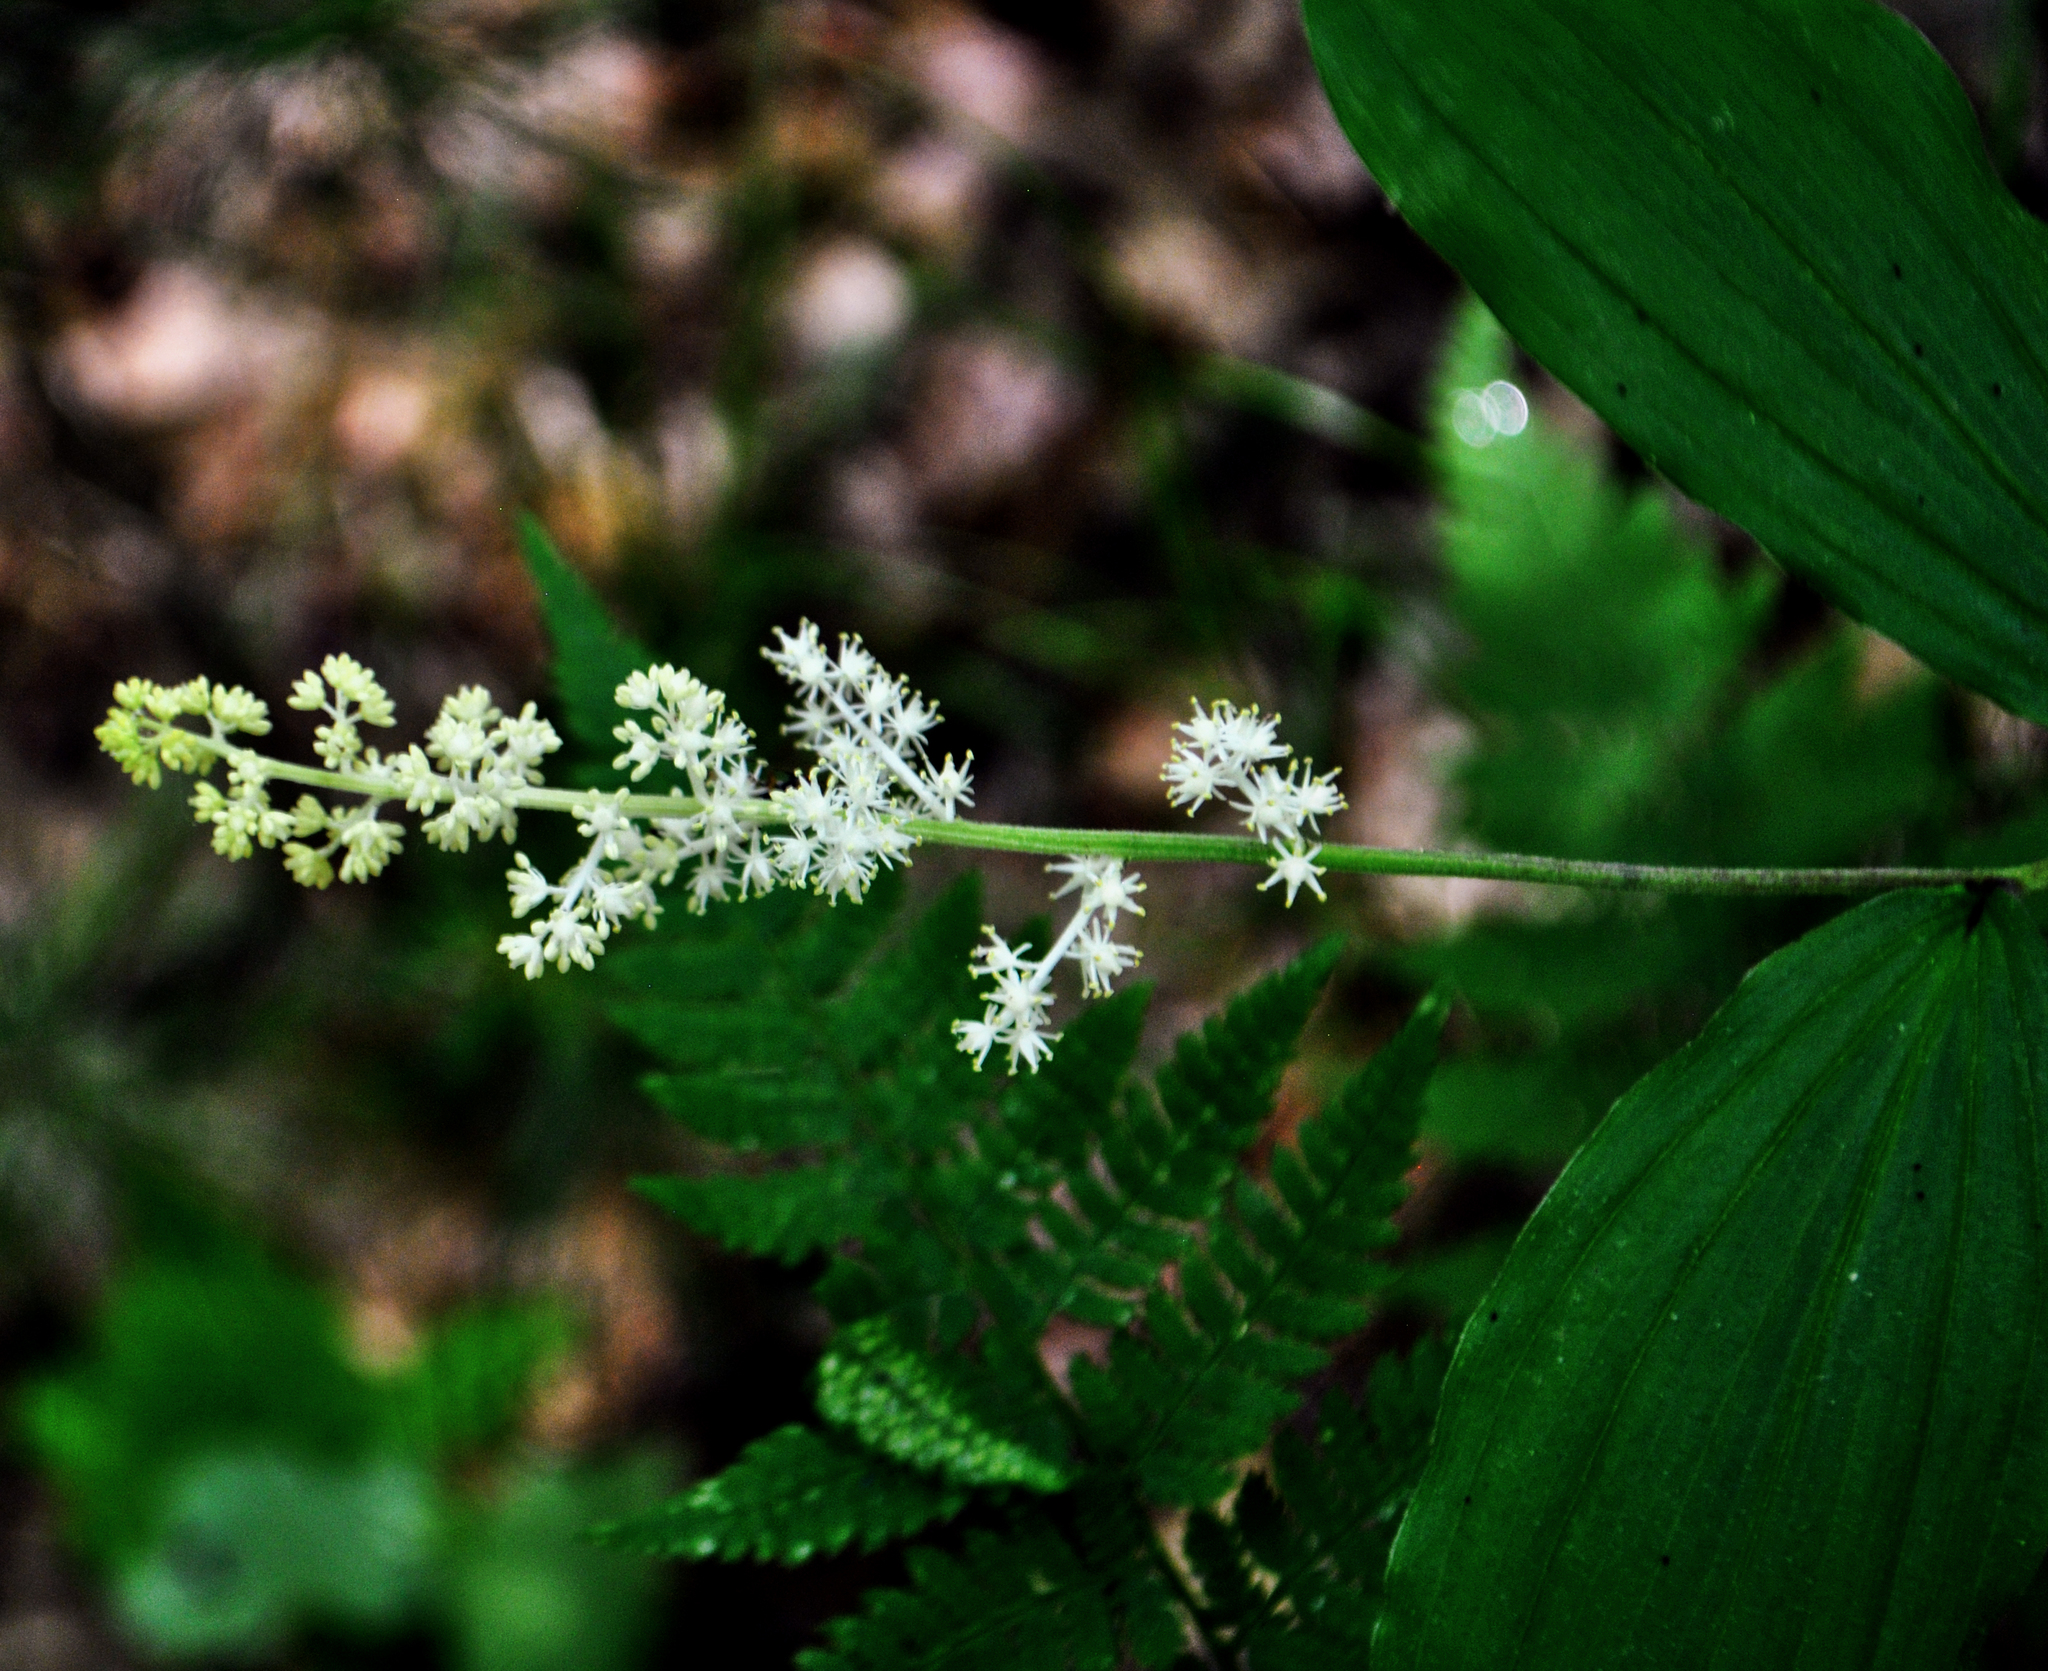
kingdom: Plantae
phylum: Tracheophyta
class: Liliopsida
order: Asparagales
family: Asparagaceae
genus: Maianthemum
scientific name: Maianthemum racemosum
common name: False spikenard
